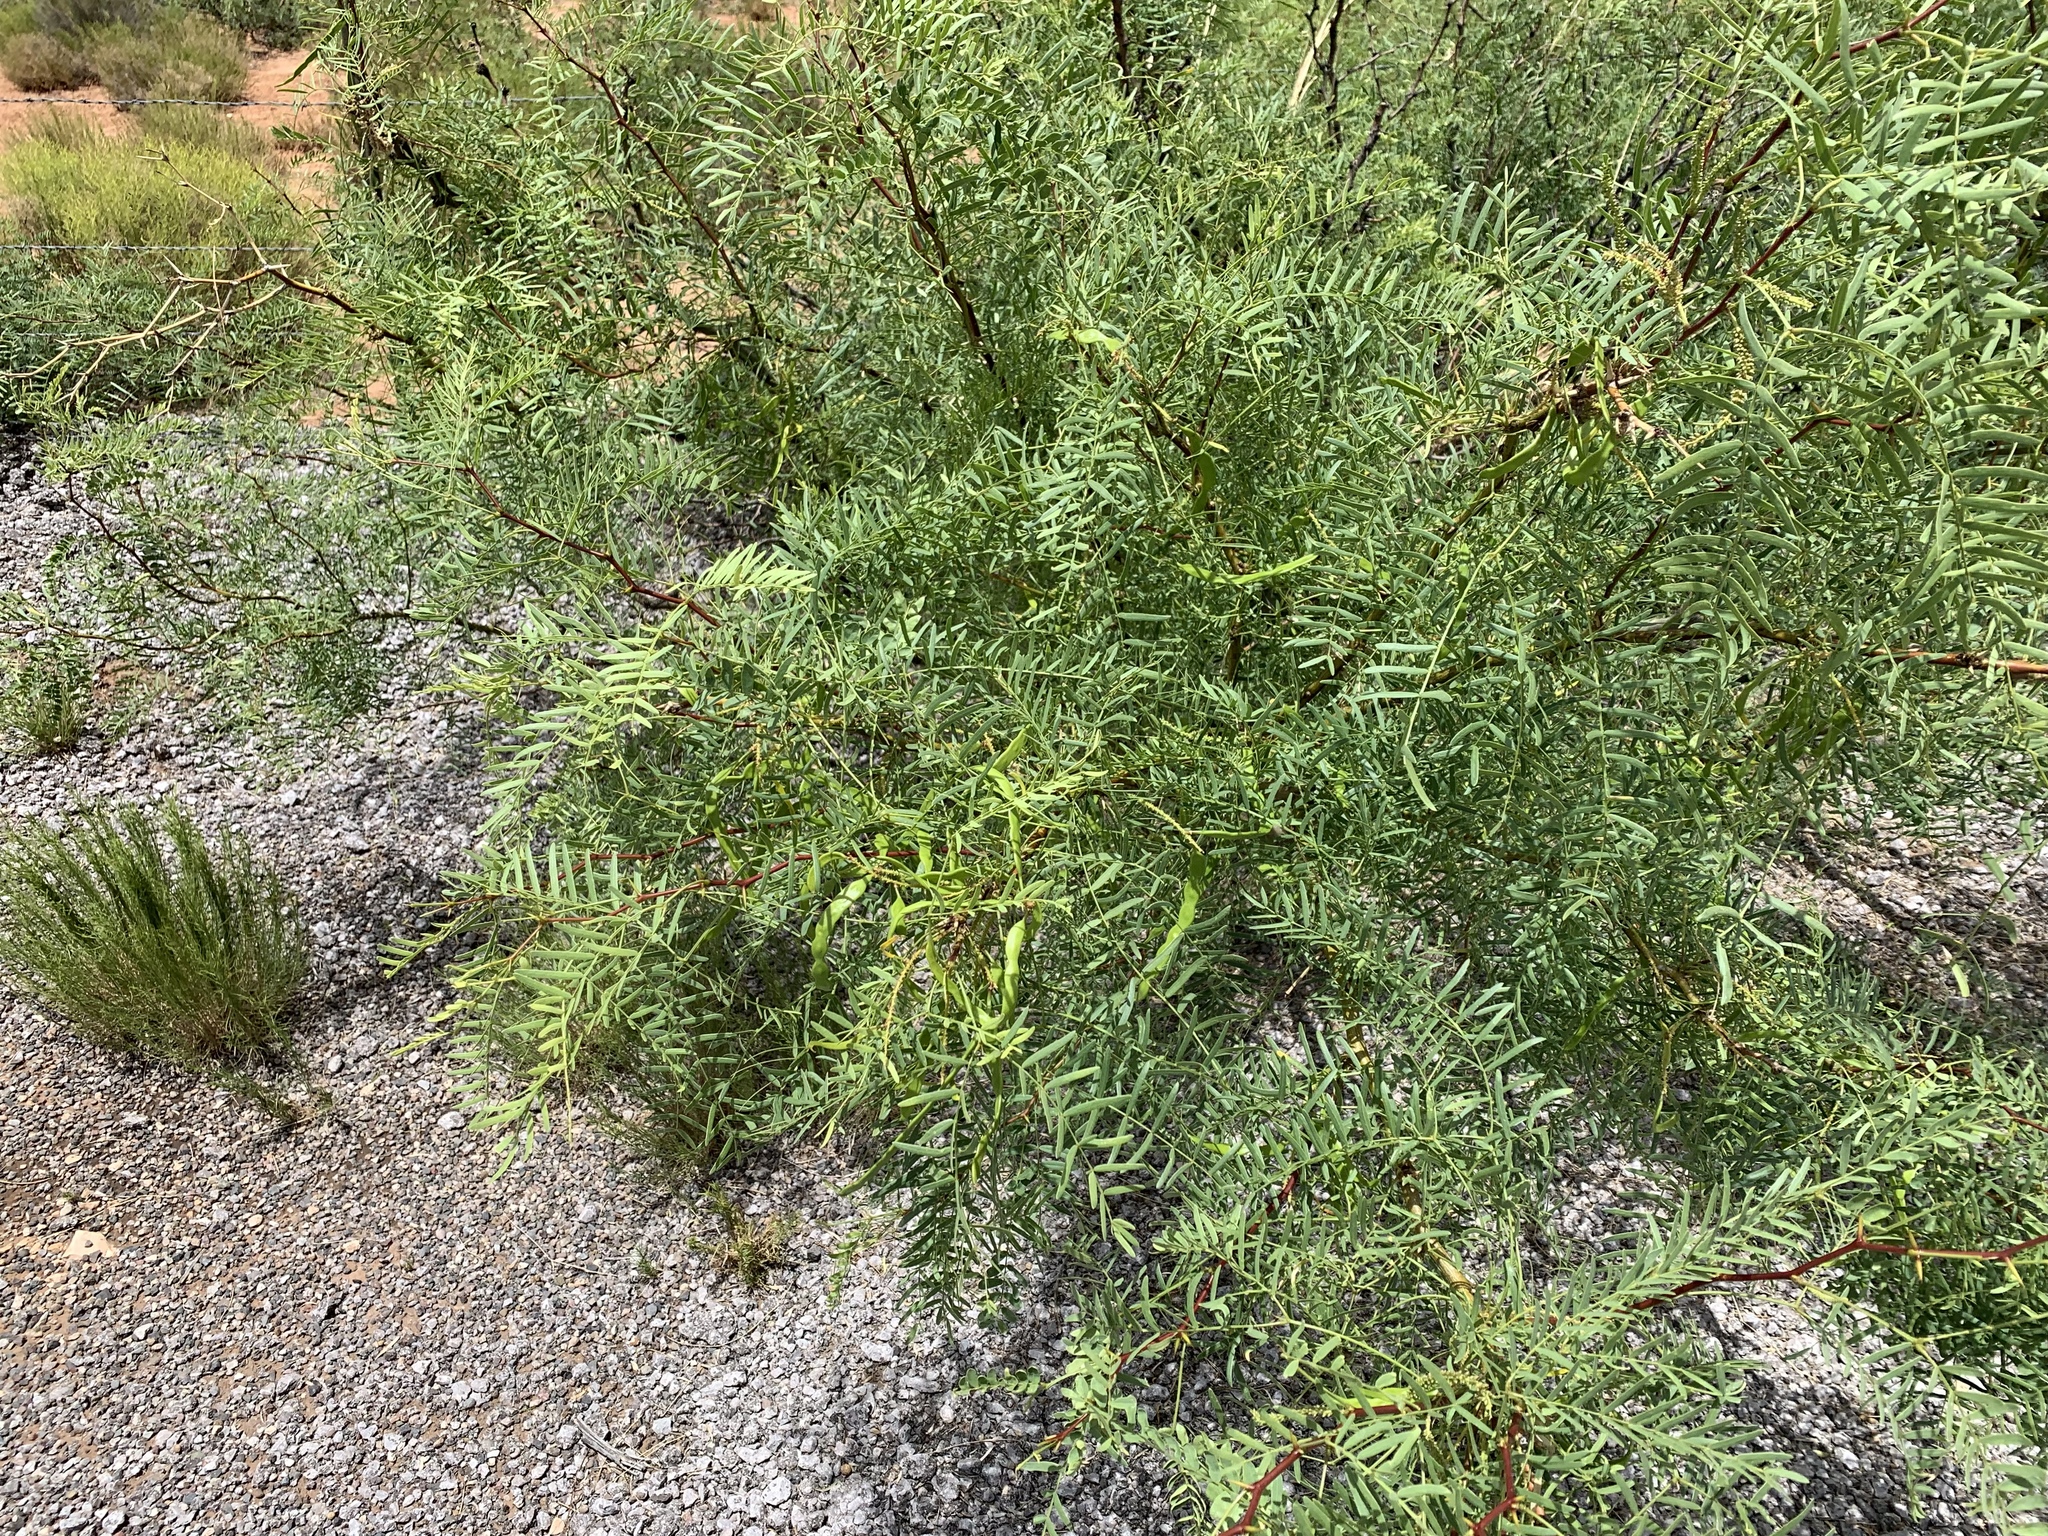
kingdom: Plantae
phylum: Tracheophyta
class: Magnoliopsida
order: Fabales
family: Fabaceae
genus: Prosopis
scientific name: Prosopis glandulosa
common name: Honey mesquite
